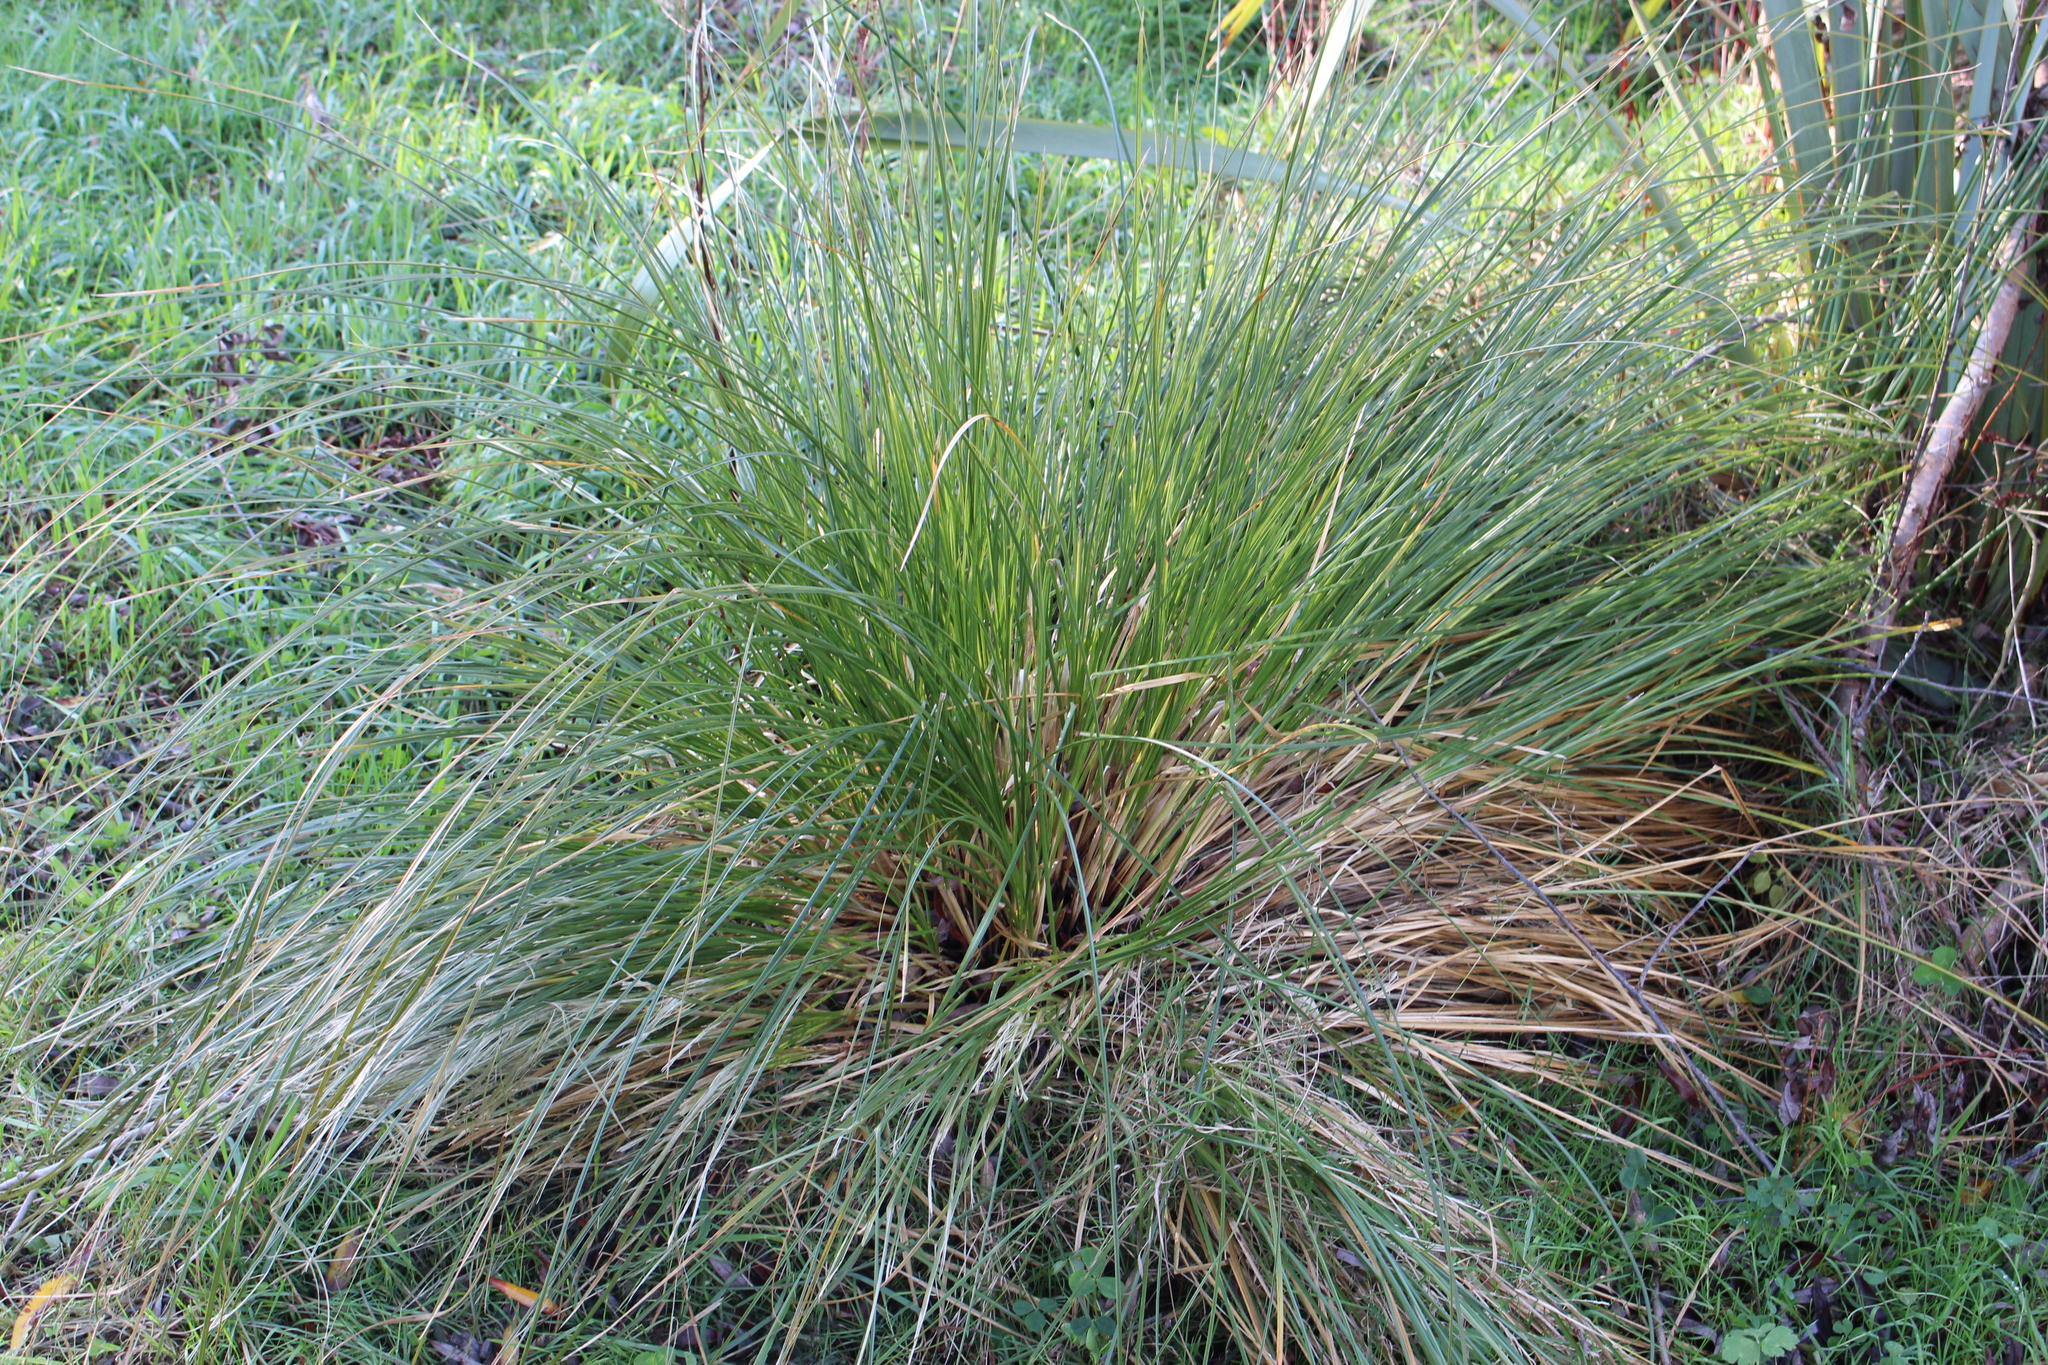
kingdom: Plantae
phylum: Tracheophyta
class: Liliopsida
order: Poales
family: Cyperaceae
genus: Carex
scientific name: Carex secta
